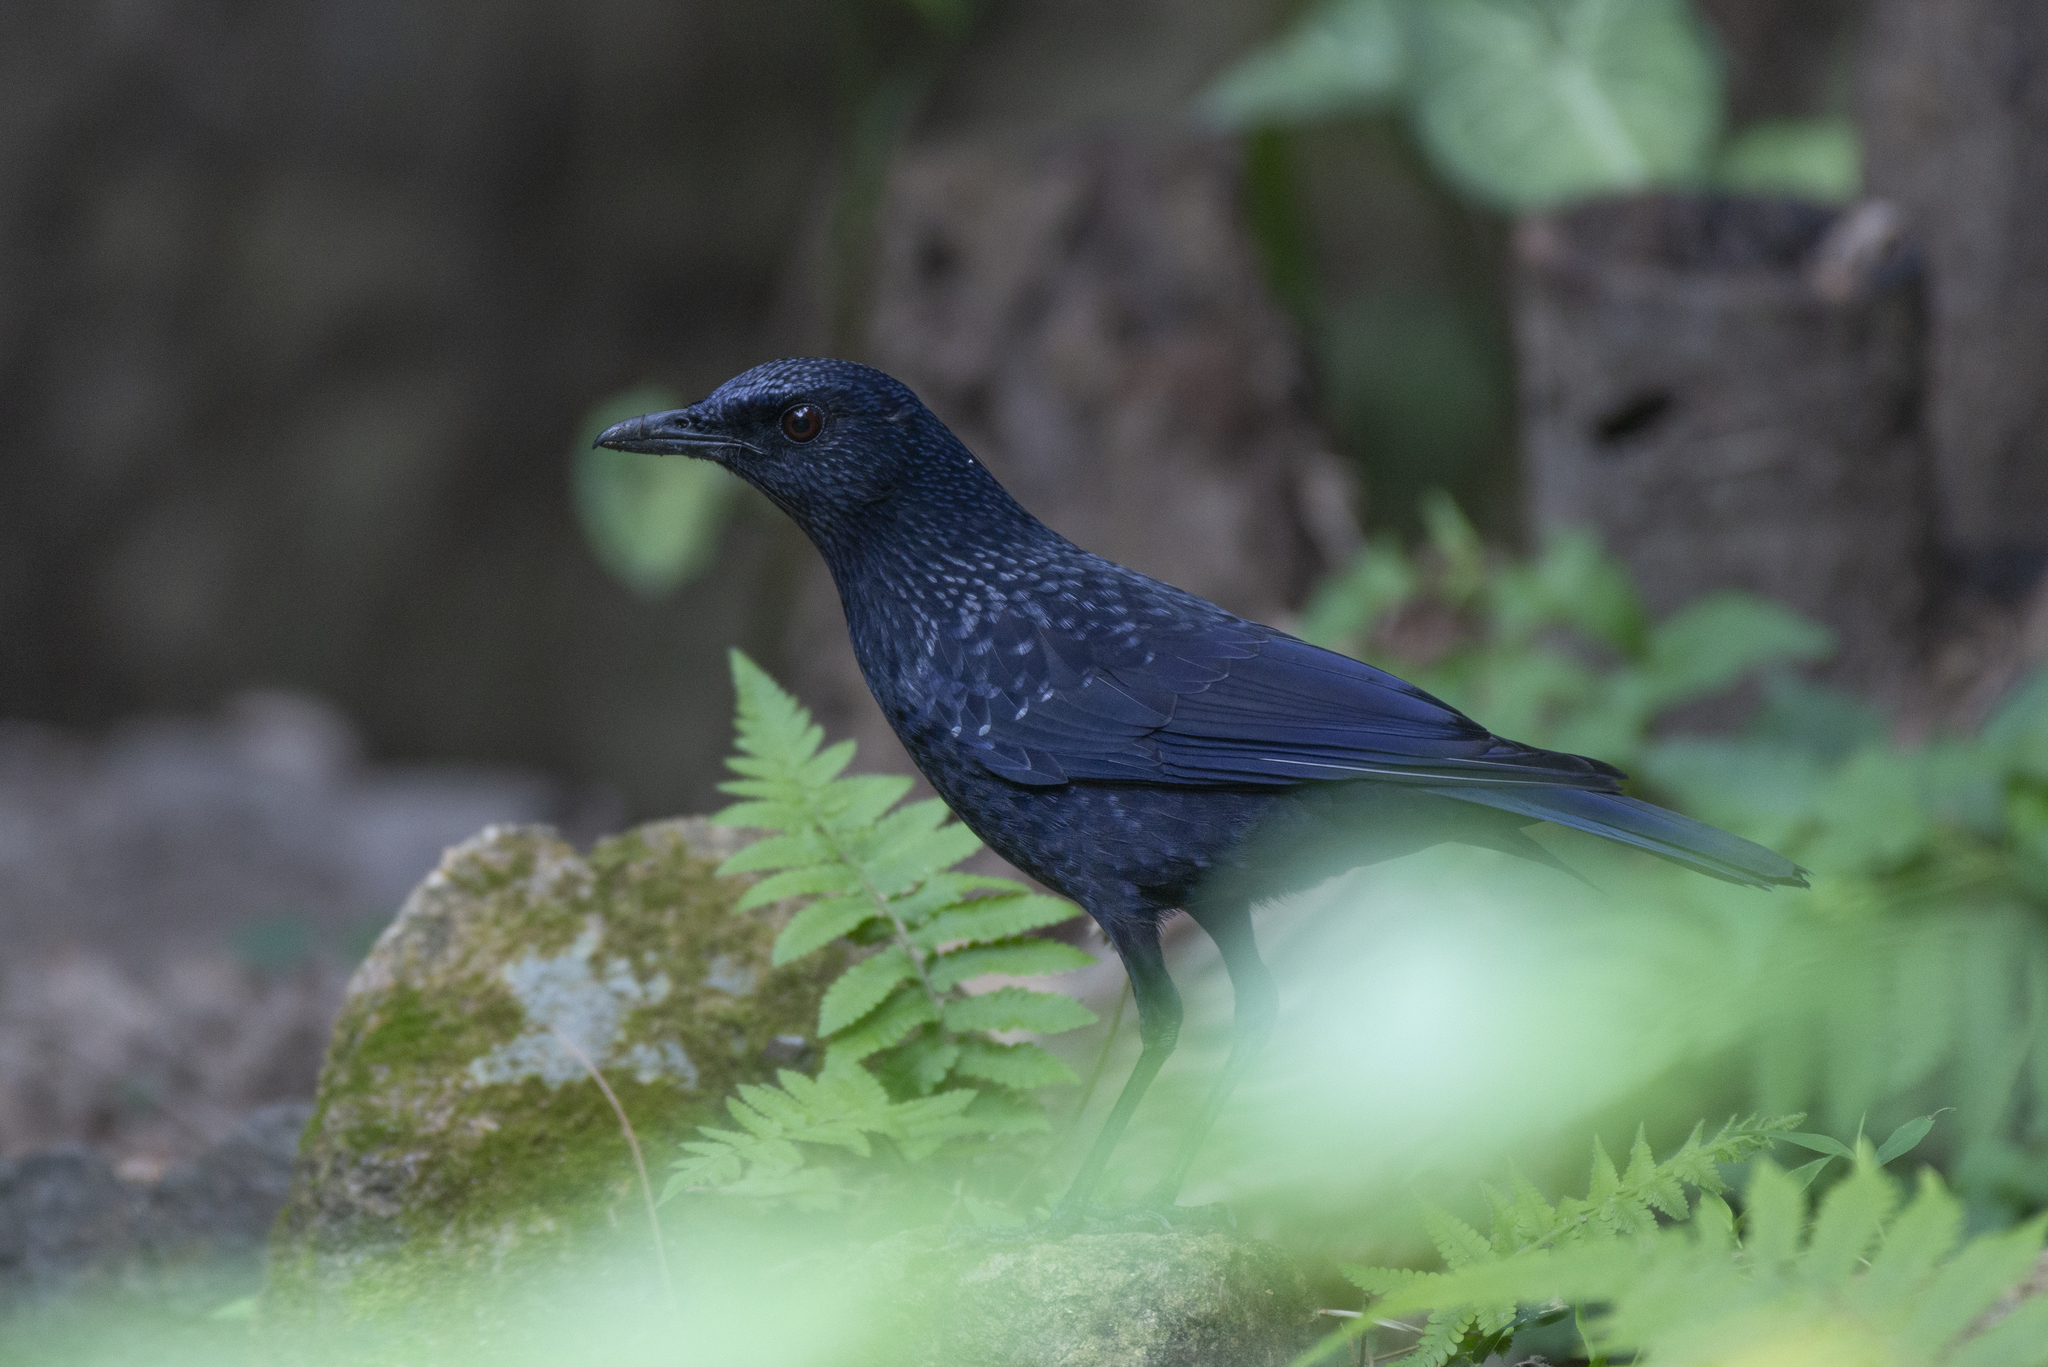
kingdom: Animalia
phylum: Chordata
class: Aves
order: Passeriformes
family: Muscicapidae
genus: Myophonus
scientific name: Myophonus caeruleus
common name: Blue whistling-thrush
